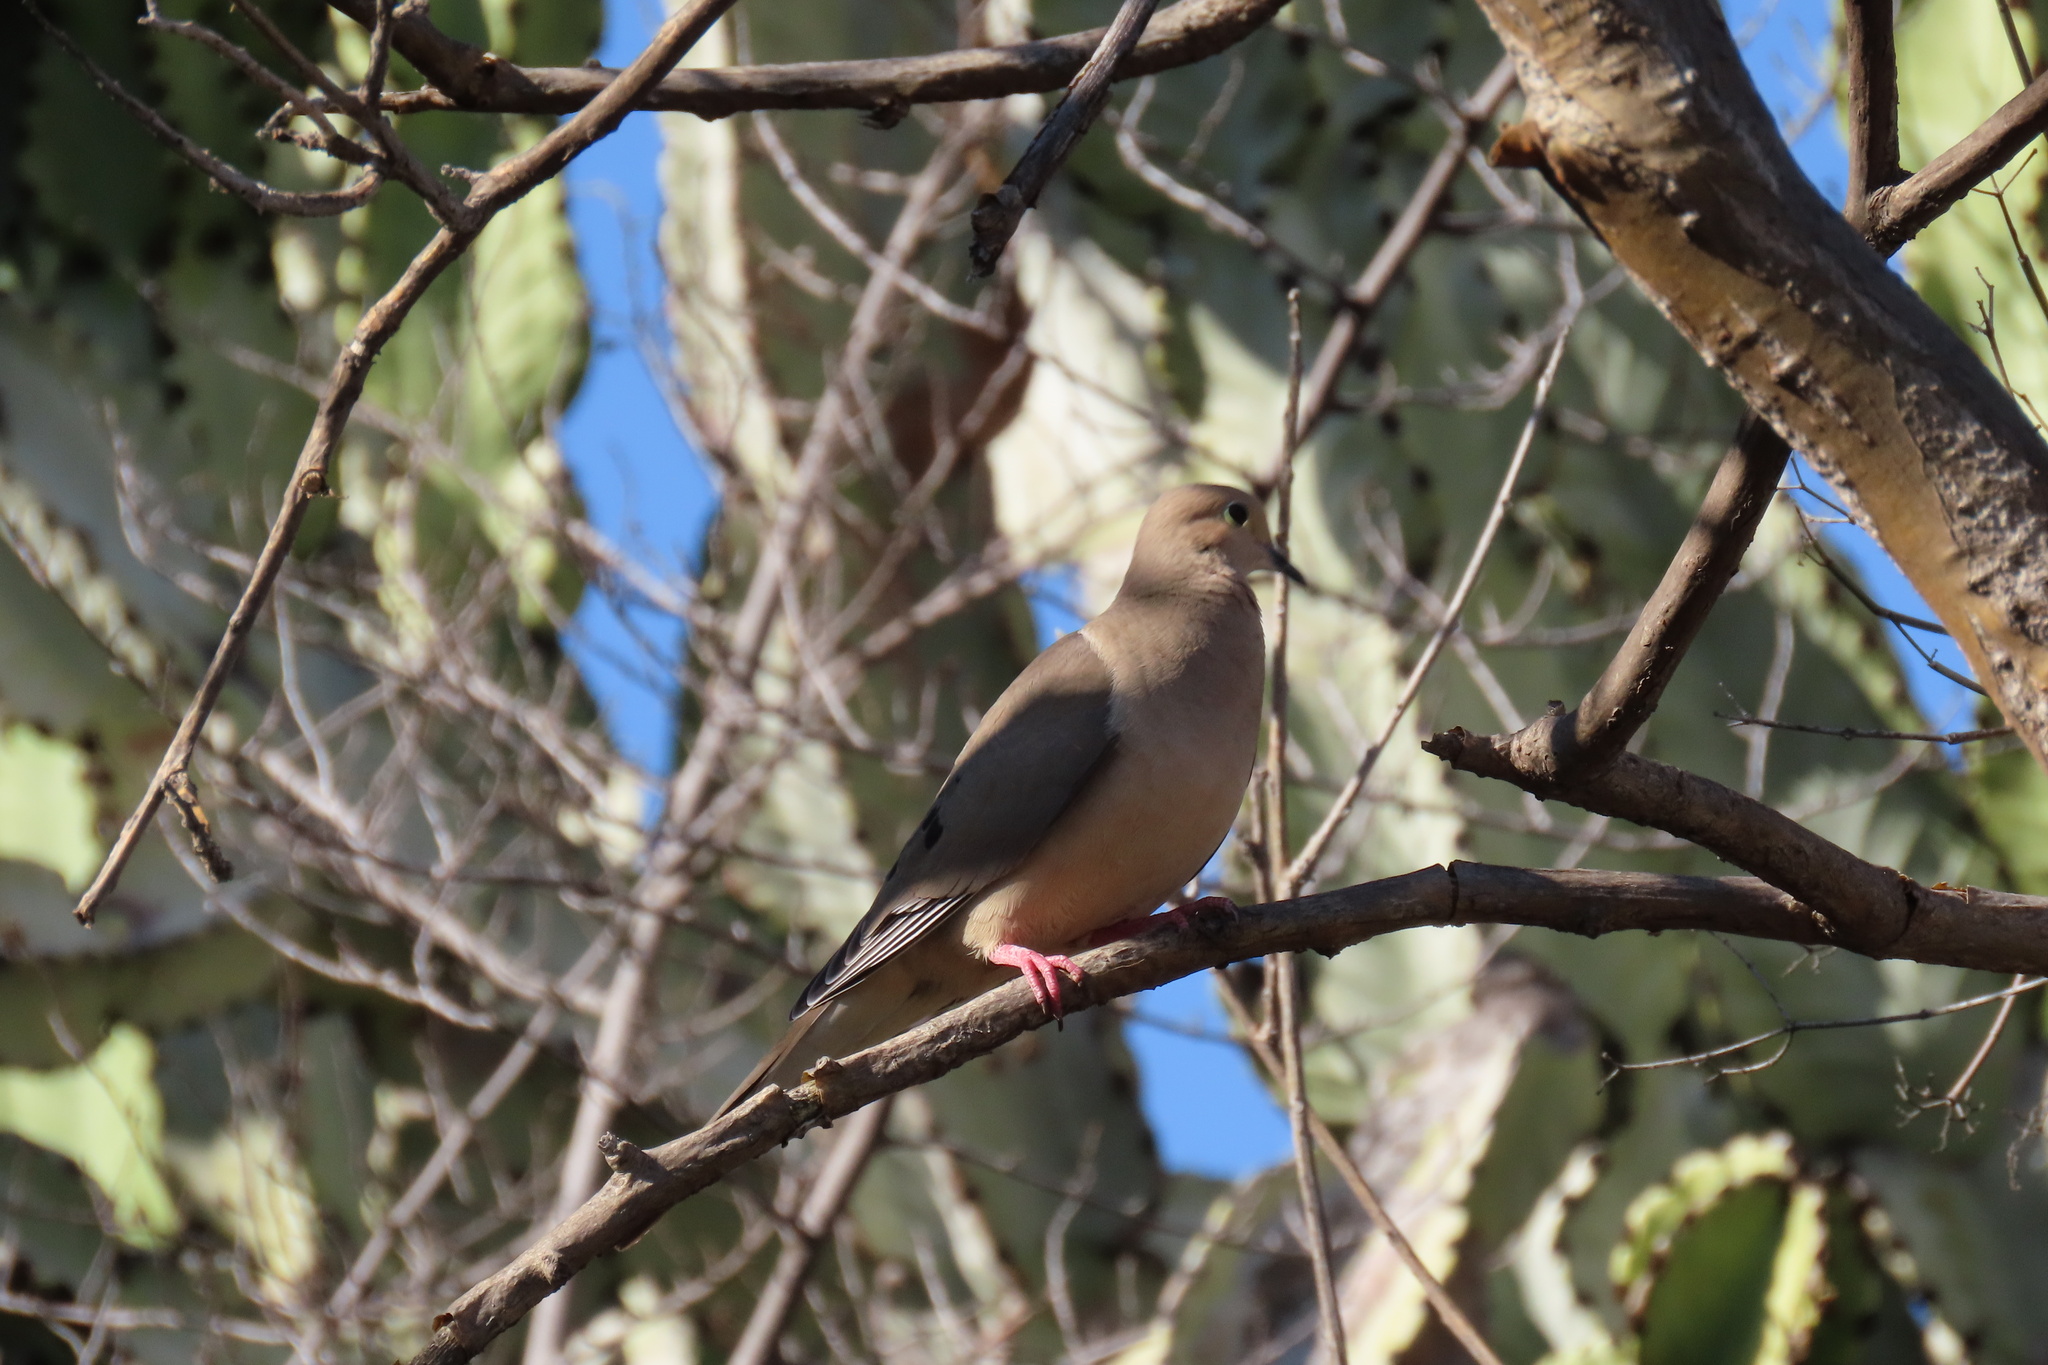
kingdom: Animalia
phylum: Chordata
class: Aves
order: Columbiformes
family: Columbidae
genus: Zenaida
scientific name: Zenaida macroura
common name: Mourning dove
